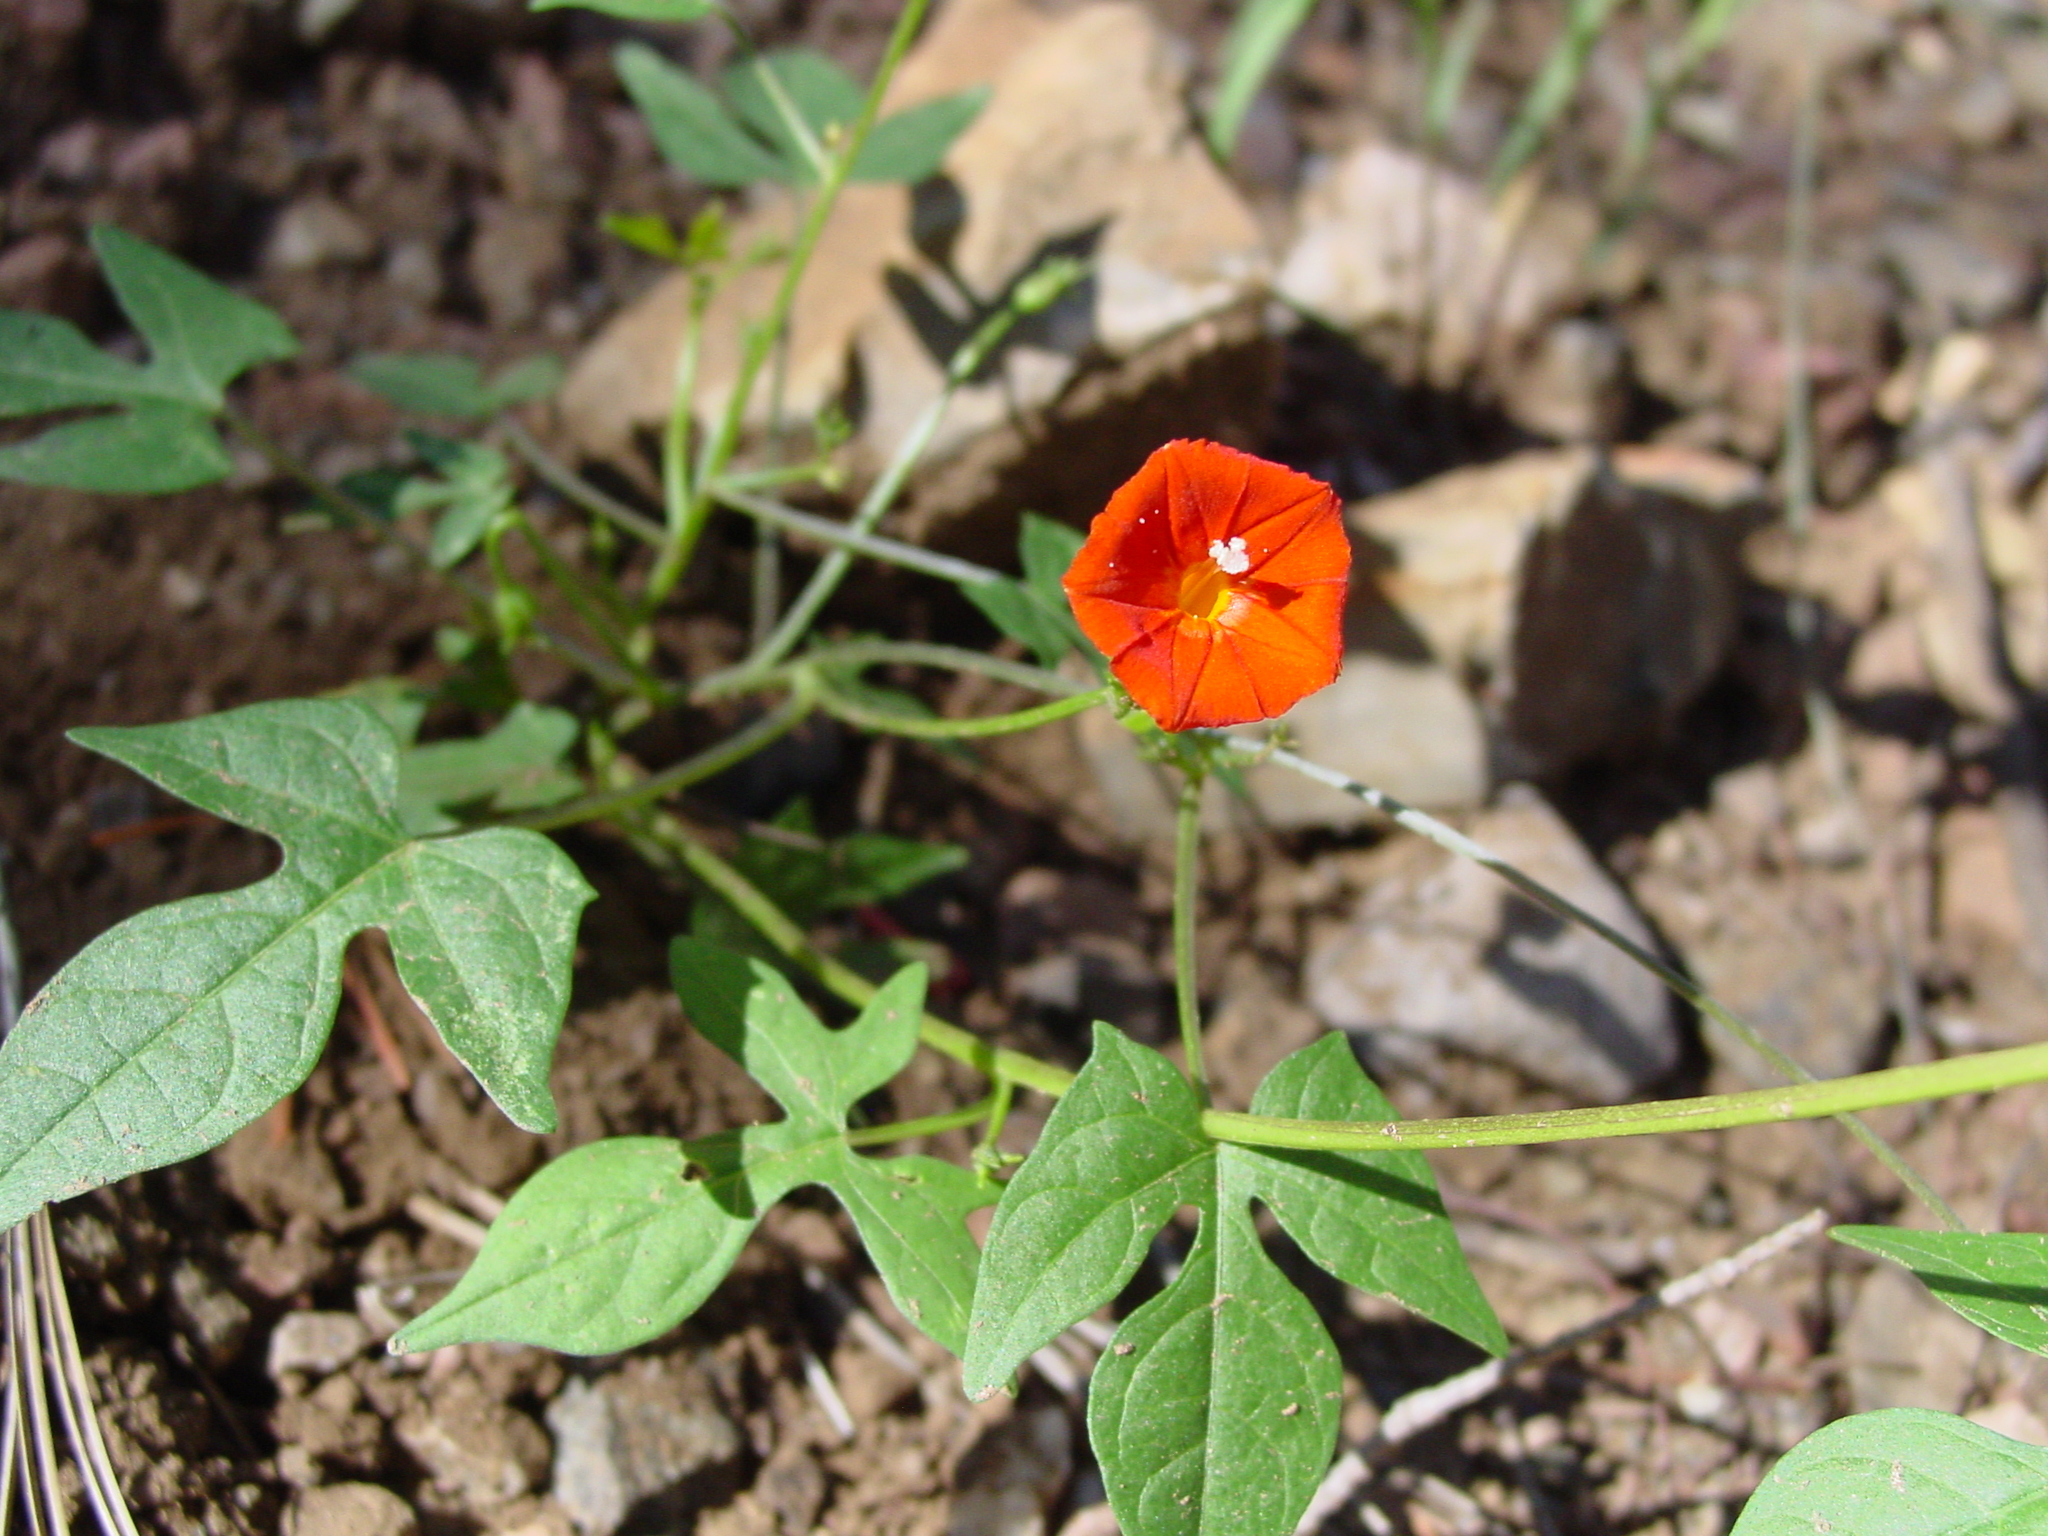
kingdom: Plantae
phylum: Tracheophyta
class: Magnoliopsida
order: Solanales
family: Convolvulaceae
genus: Ipomoea
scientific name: Ipomoea cristulata
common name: Trans-pecos morning-glory
